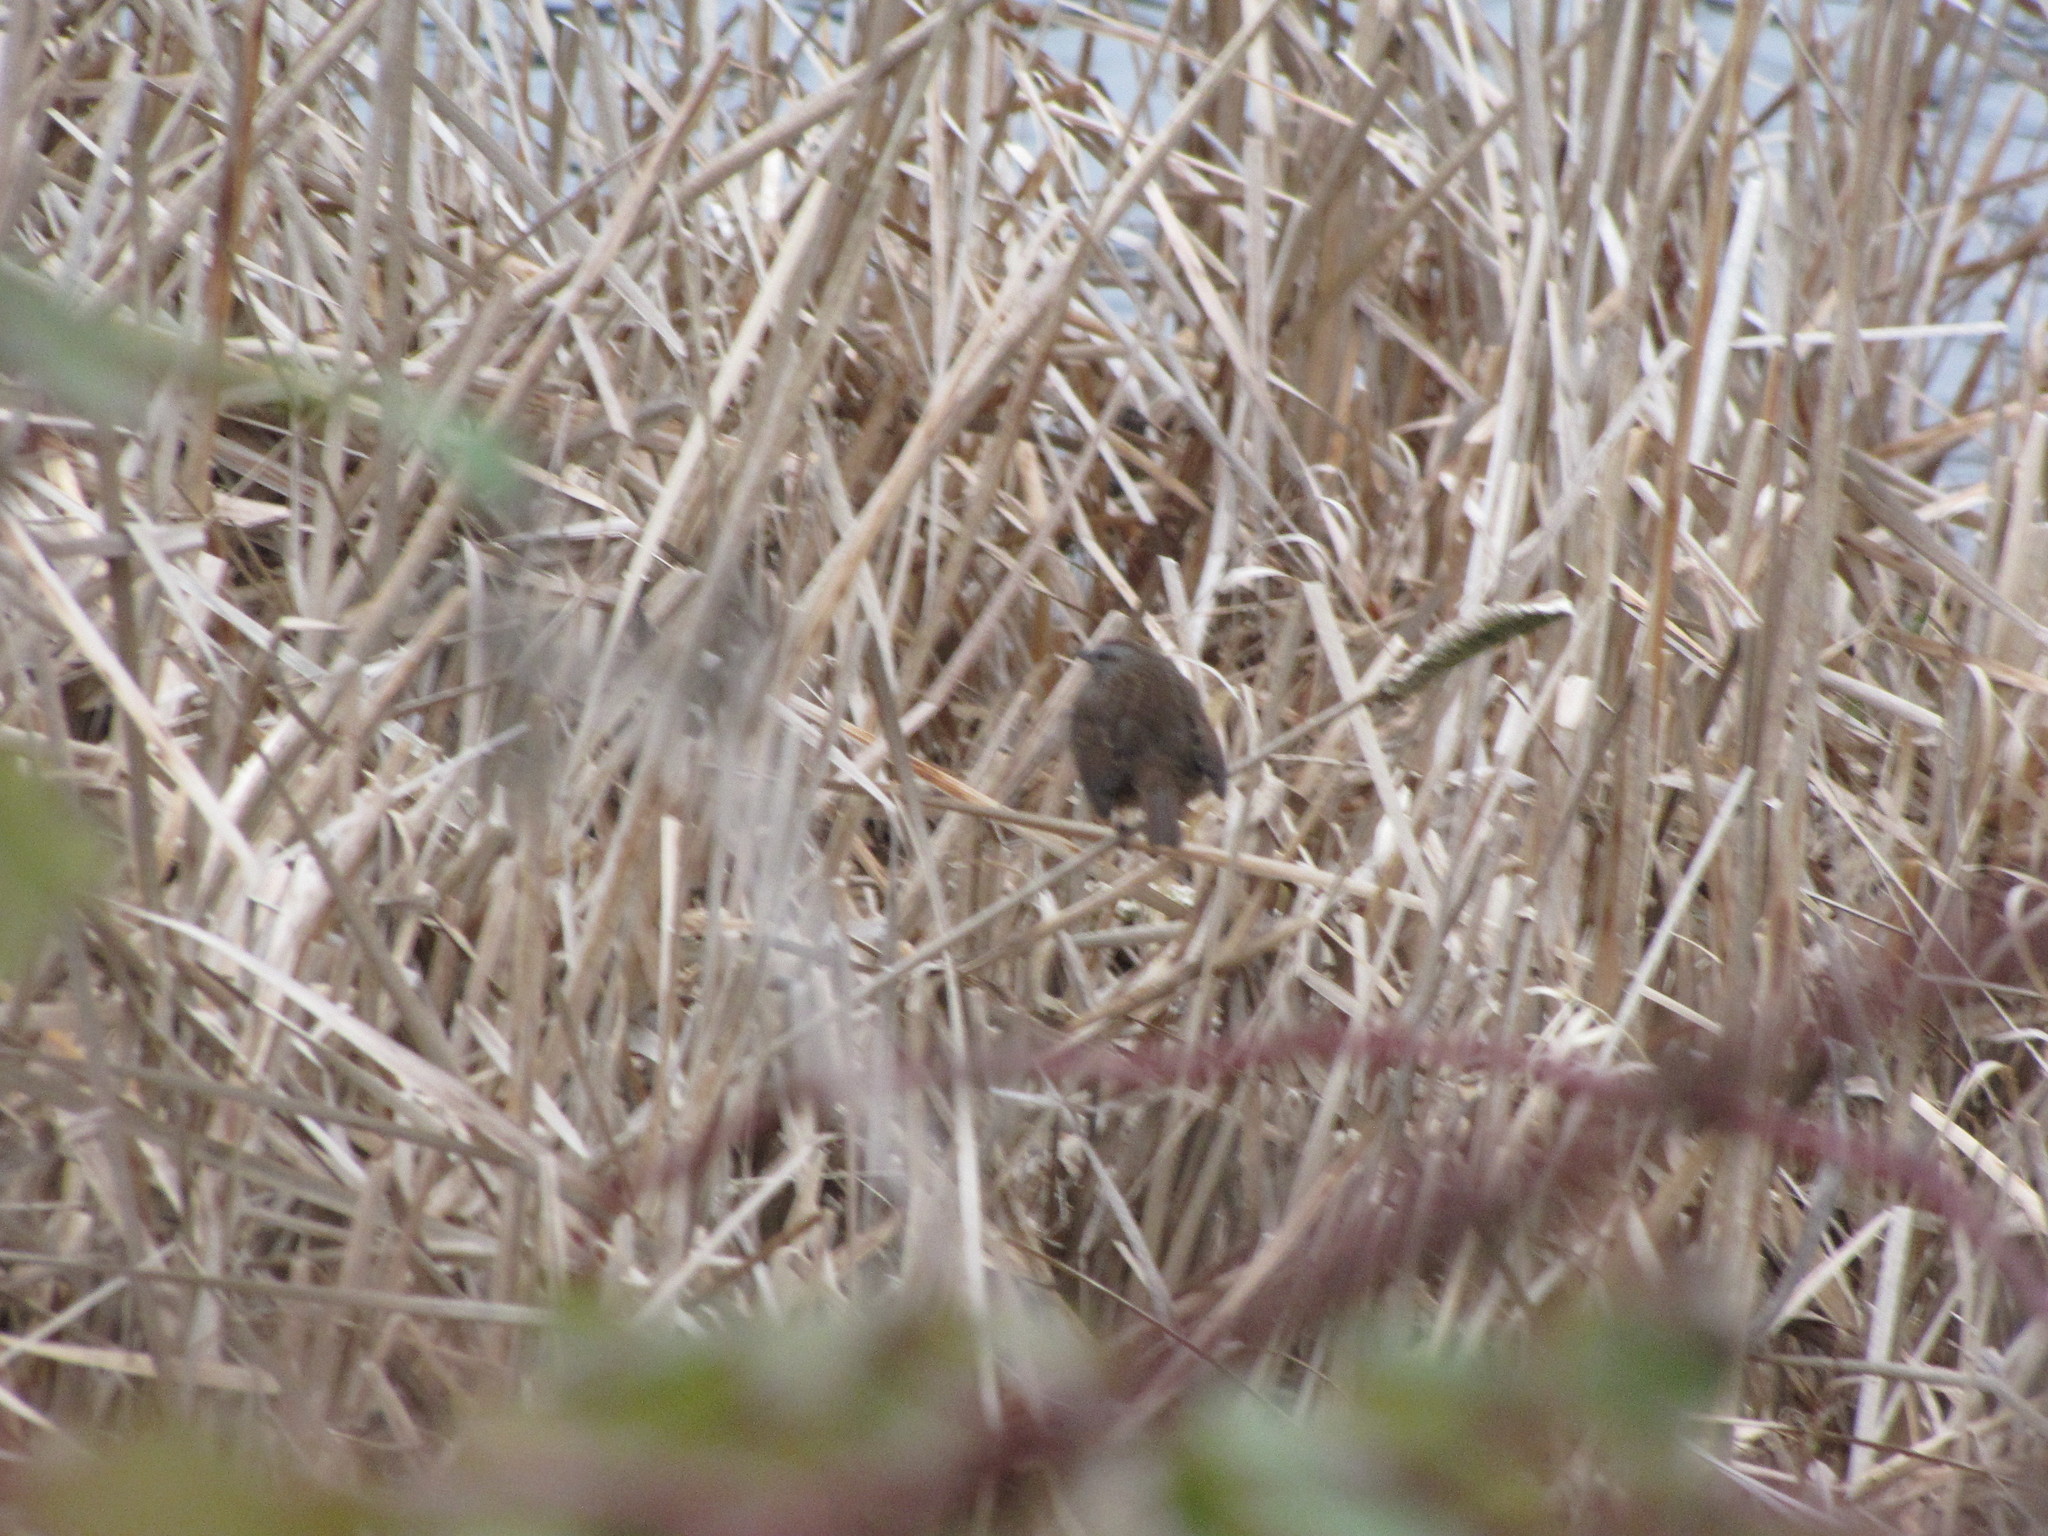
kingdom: Animalia
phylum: Chordata
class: Aves
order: Passeriformes
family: Passerellidae
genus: Melospiza
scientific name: Melospiza melodia
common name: Song sparrow
